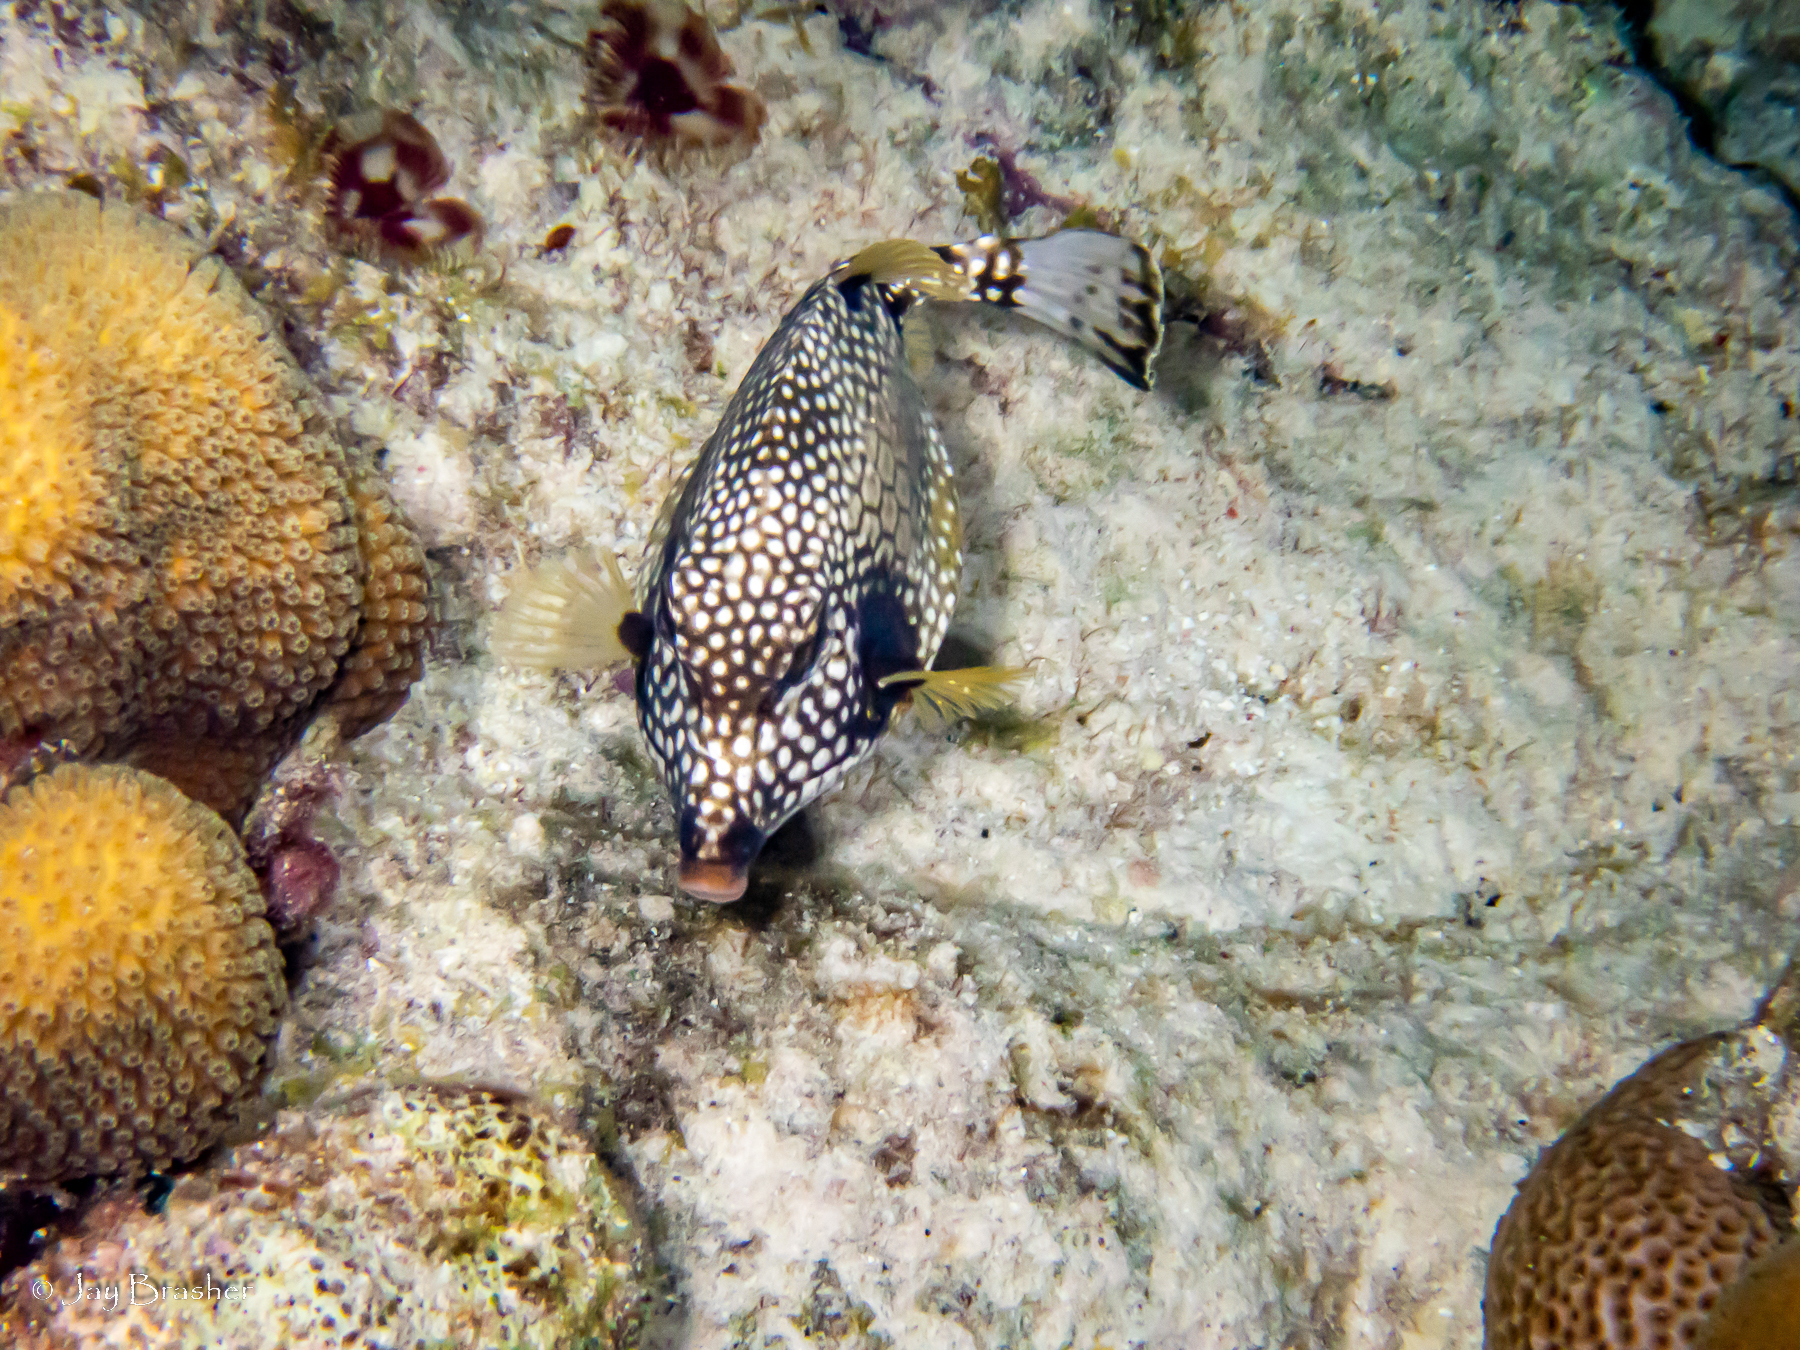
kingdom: Animalia
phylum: Chordata
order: Tetraodontiformes
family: Ostraciidae
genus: Lactophrys
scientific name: Lactophrys triqueter
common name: Smooth trunkfish
